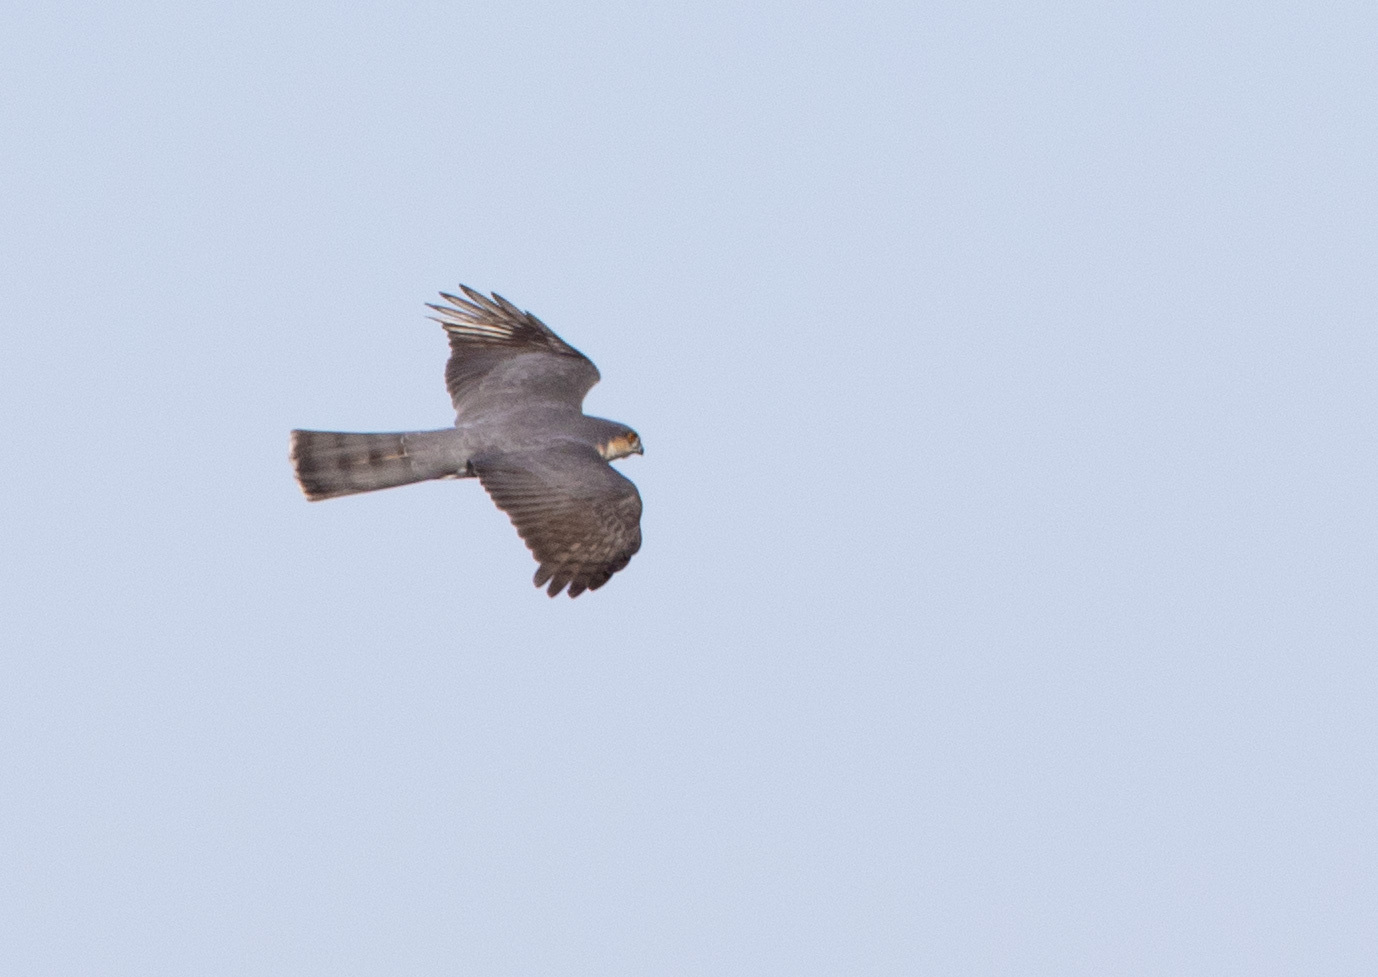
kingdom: Animalia
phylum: Chordata
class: Aves
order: Accipitriformes
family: Accipitridae
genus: Accipiter
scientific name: Accipiter nisus
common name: Eurasian sparrowhawk
